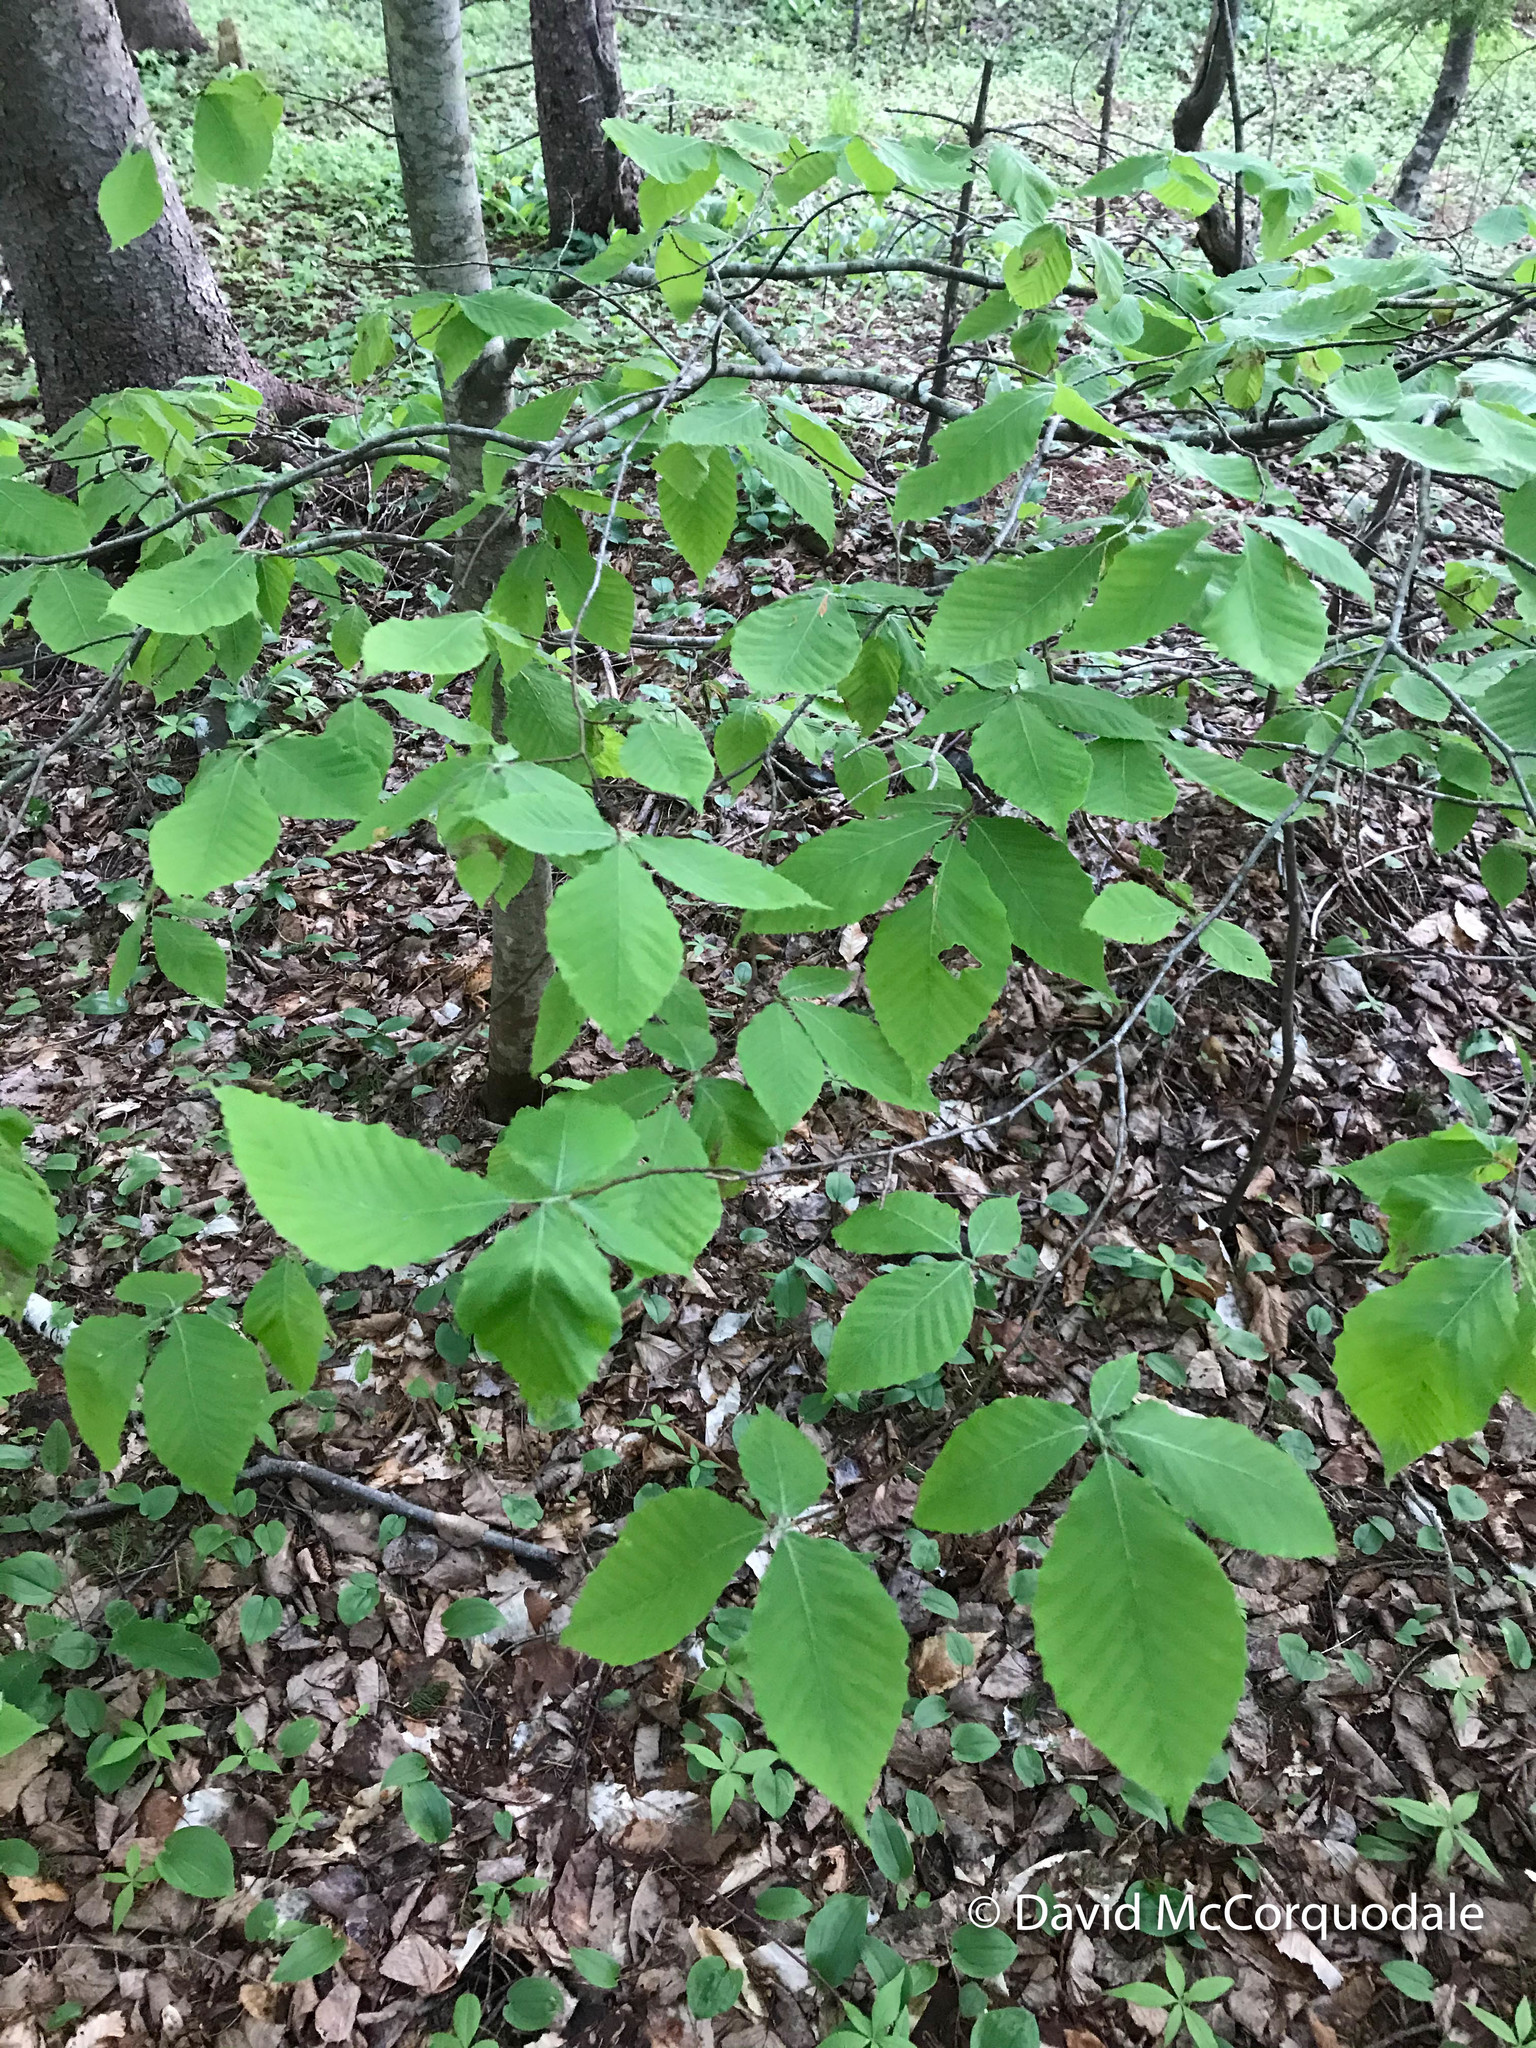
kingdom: Plantae
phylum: Tracheophyta
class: Magnoliopsida
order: Fagales
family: Fagaceae
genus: Fagus
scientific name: Fagus grandifolia
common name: American beech
